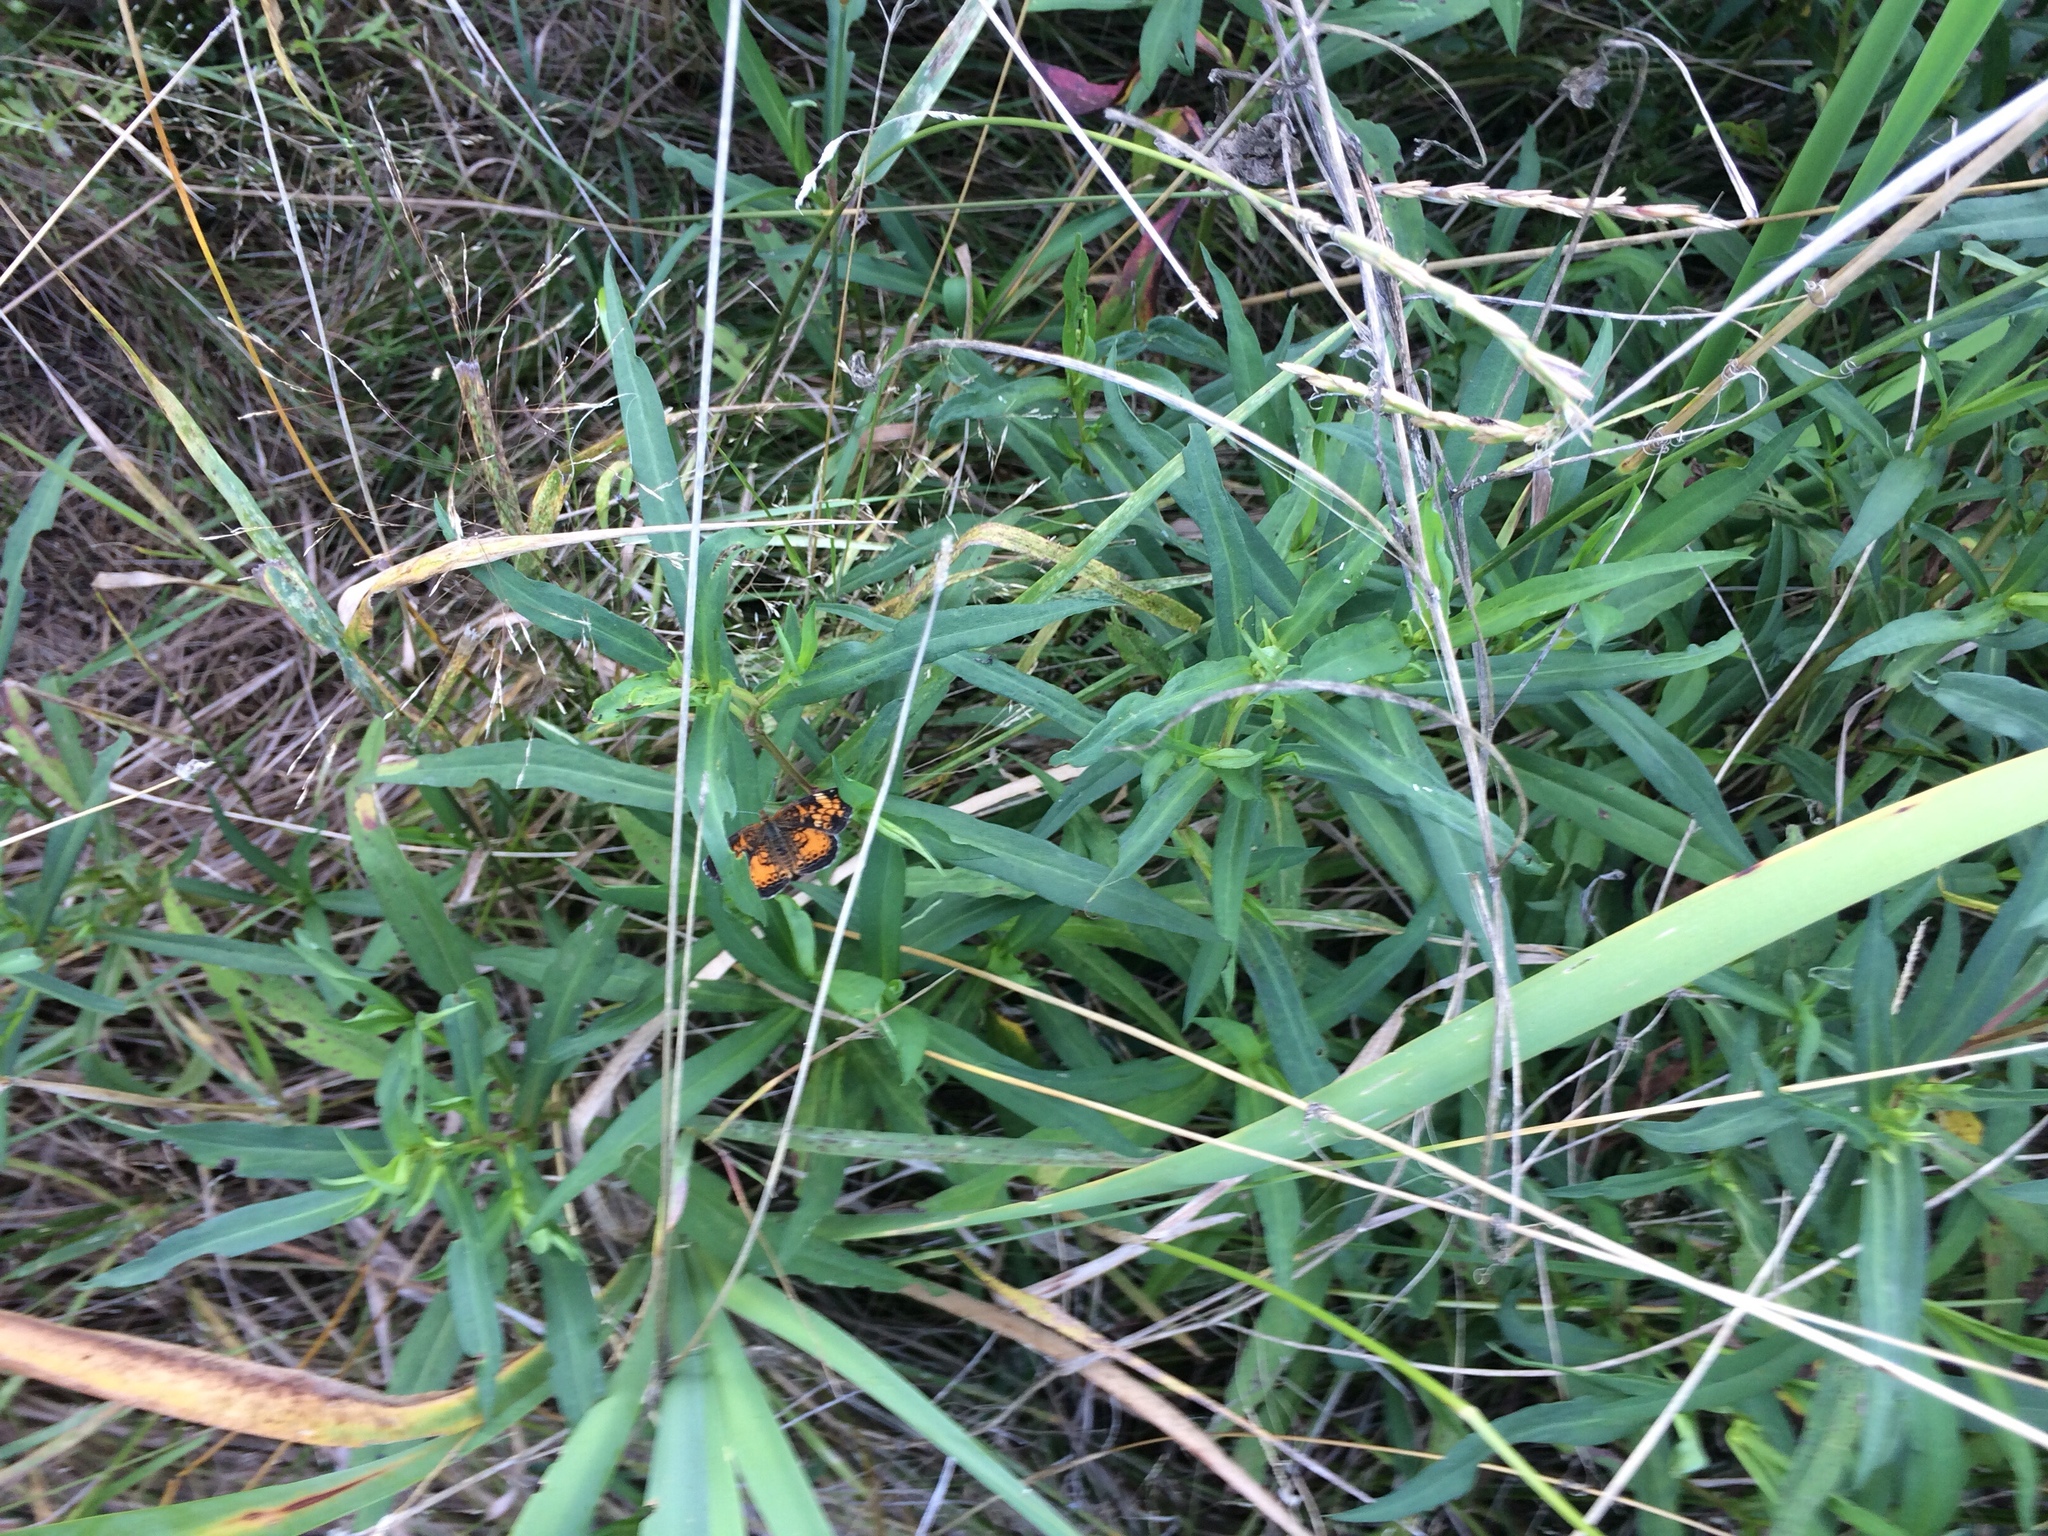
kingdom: Animalia
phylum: Arthropoda
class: Insecta
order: Lepidoptera
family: Nymphalidae
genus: Phyciodes
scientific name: Phyciodes tharos
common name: Pearl crescent
